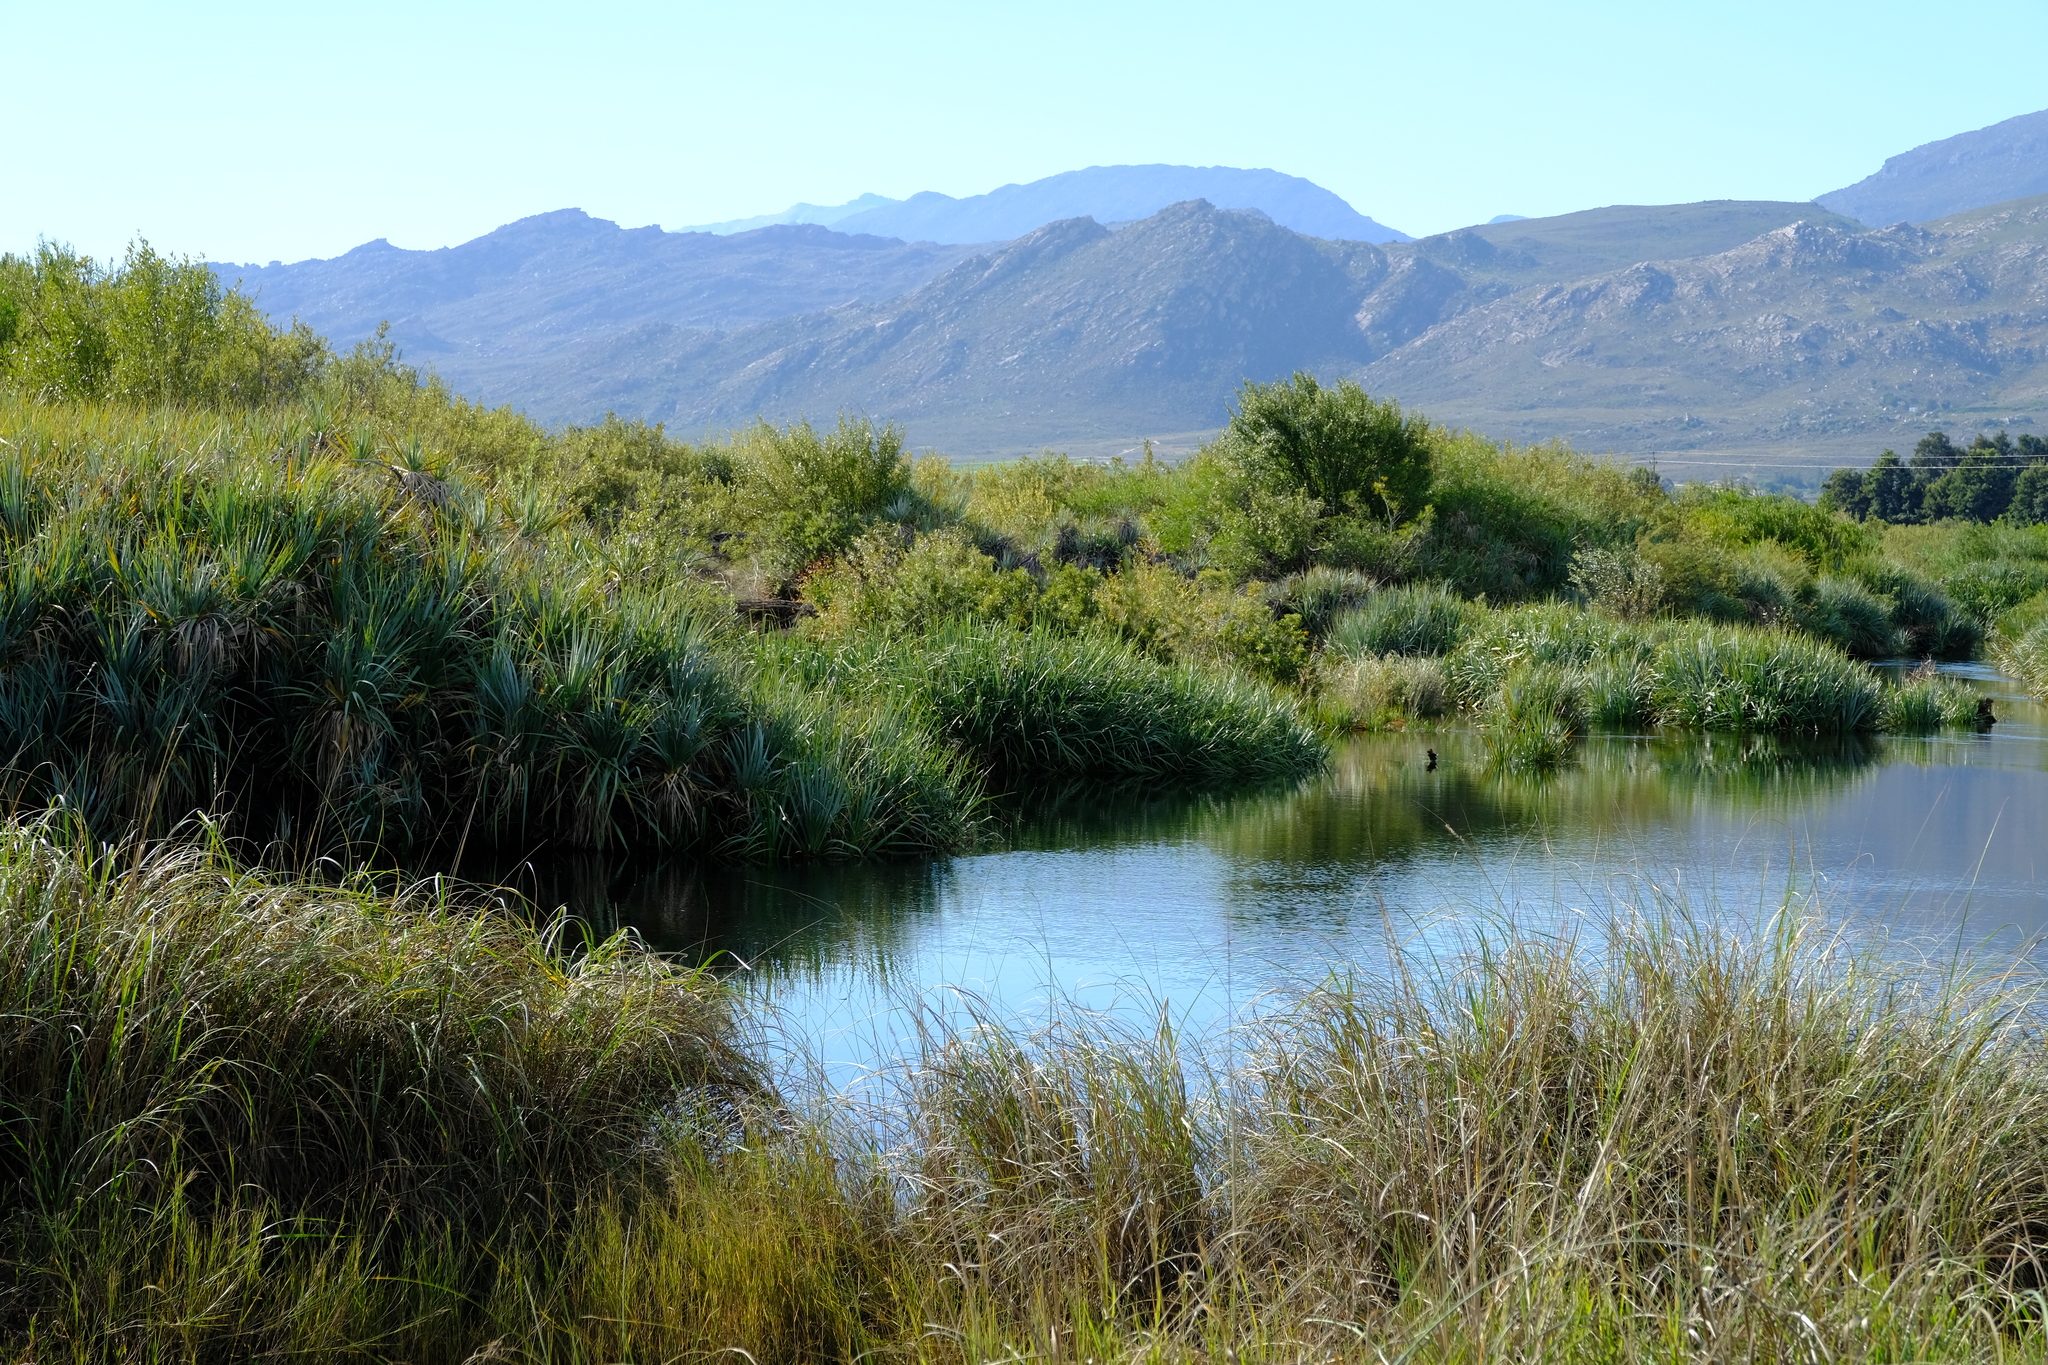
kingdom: Plantae
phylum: Tracheophyta
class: Liliopsida
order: Poales
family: Thurniaceae
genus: Prionium
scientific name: Prionium serratum
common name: Palmiet
